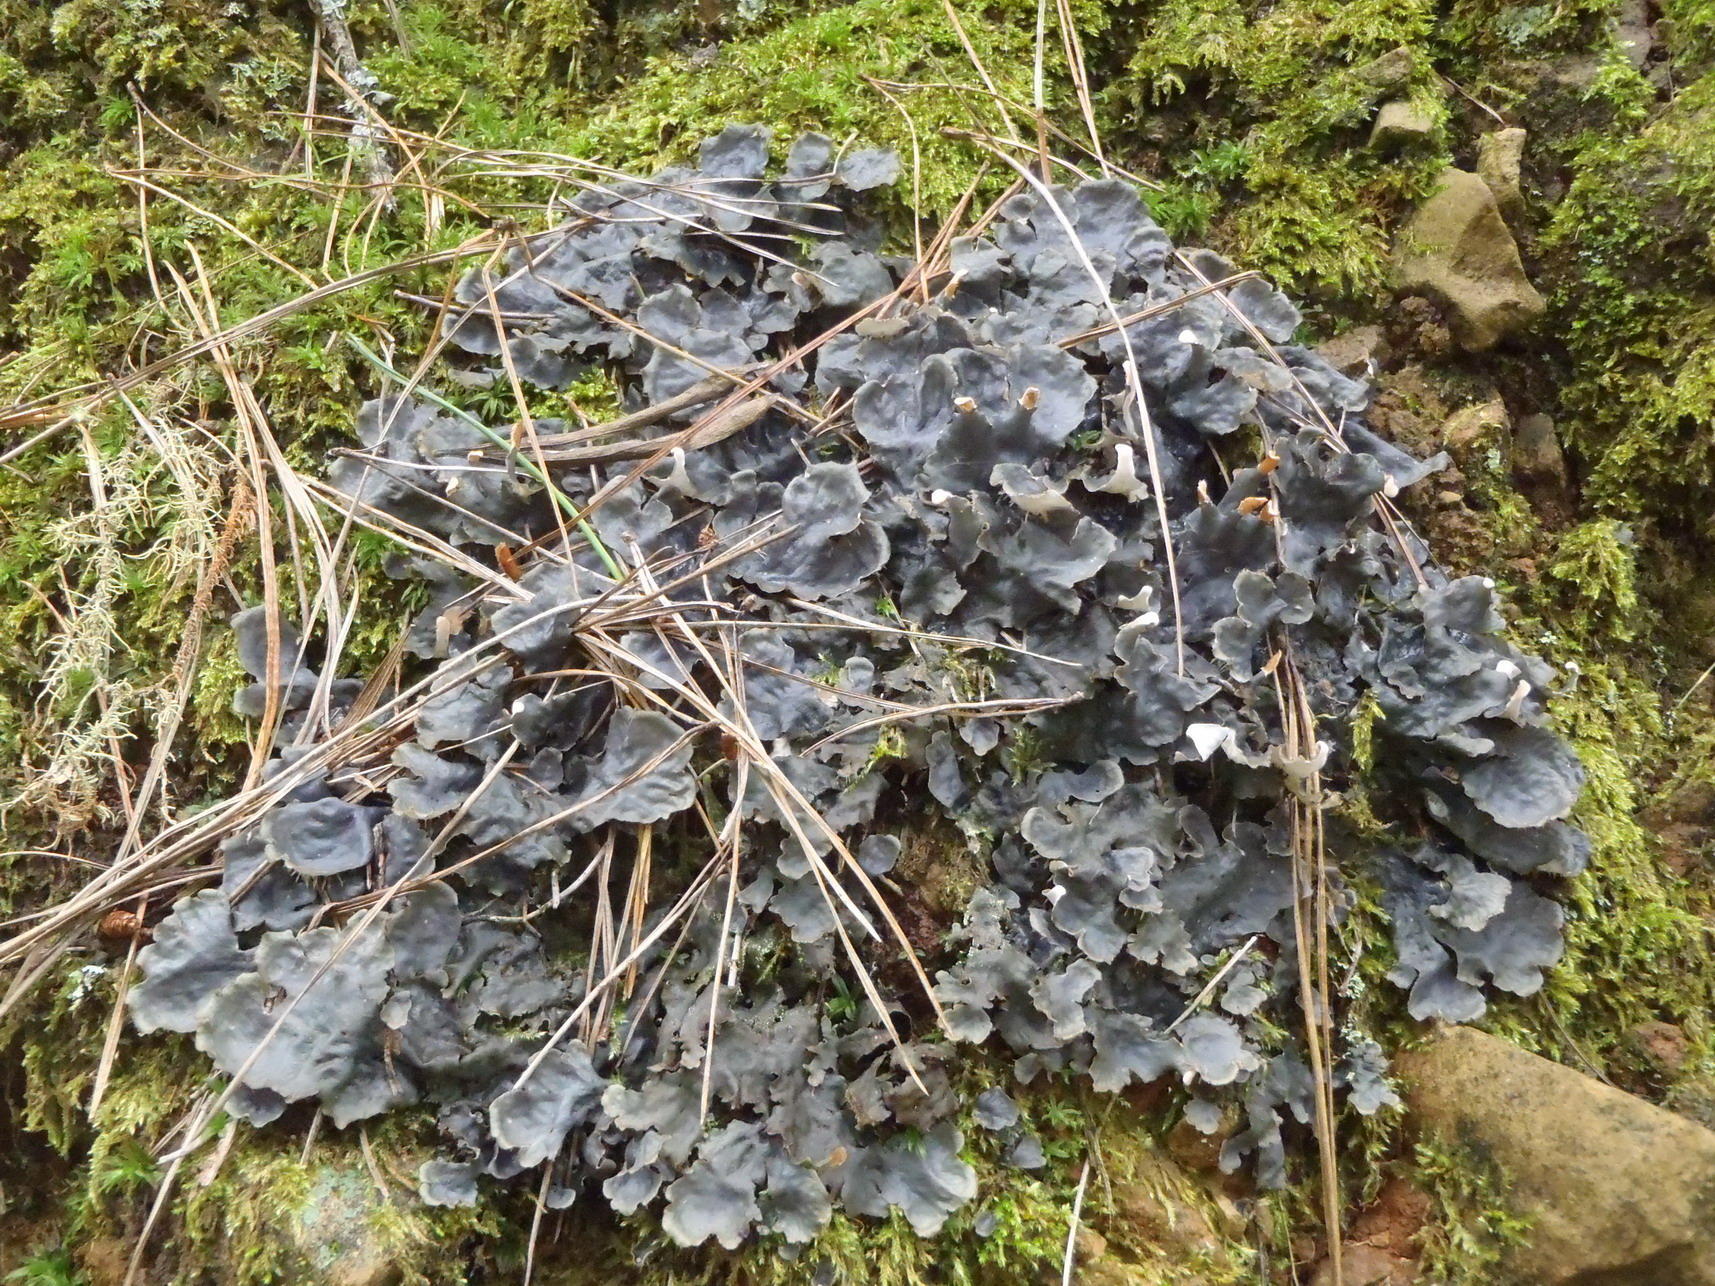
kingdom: Fungi
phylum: Ascomycota
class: Lecanoromycetes
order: Peltigerales
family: Peltigeraceae
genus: Peltigera
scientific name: Peltigera polydactylon
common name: Many-fruited pelt lichen
